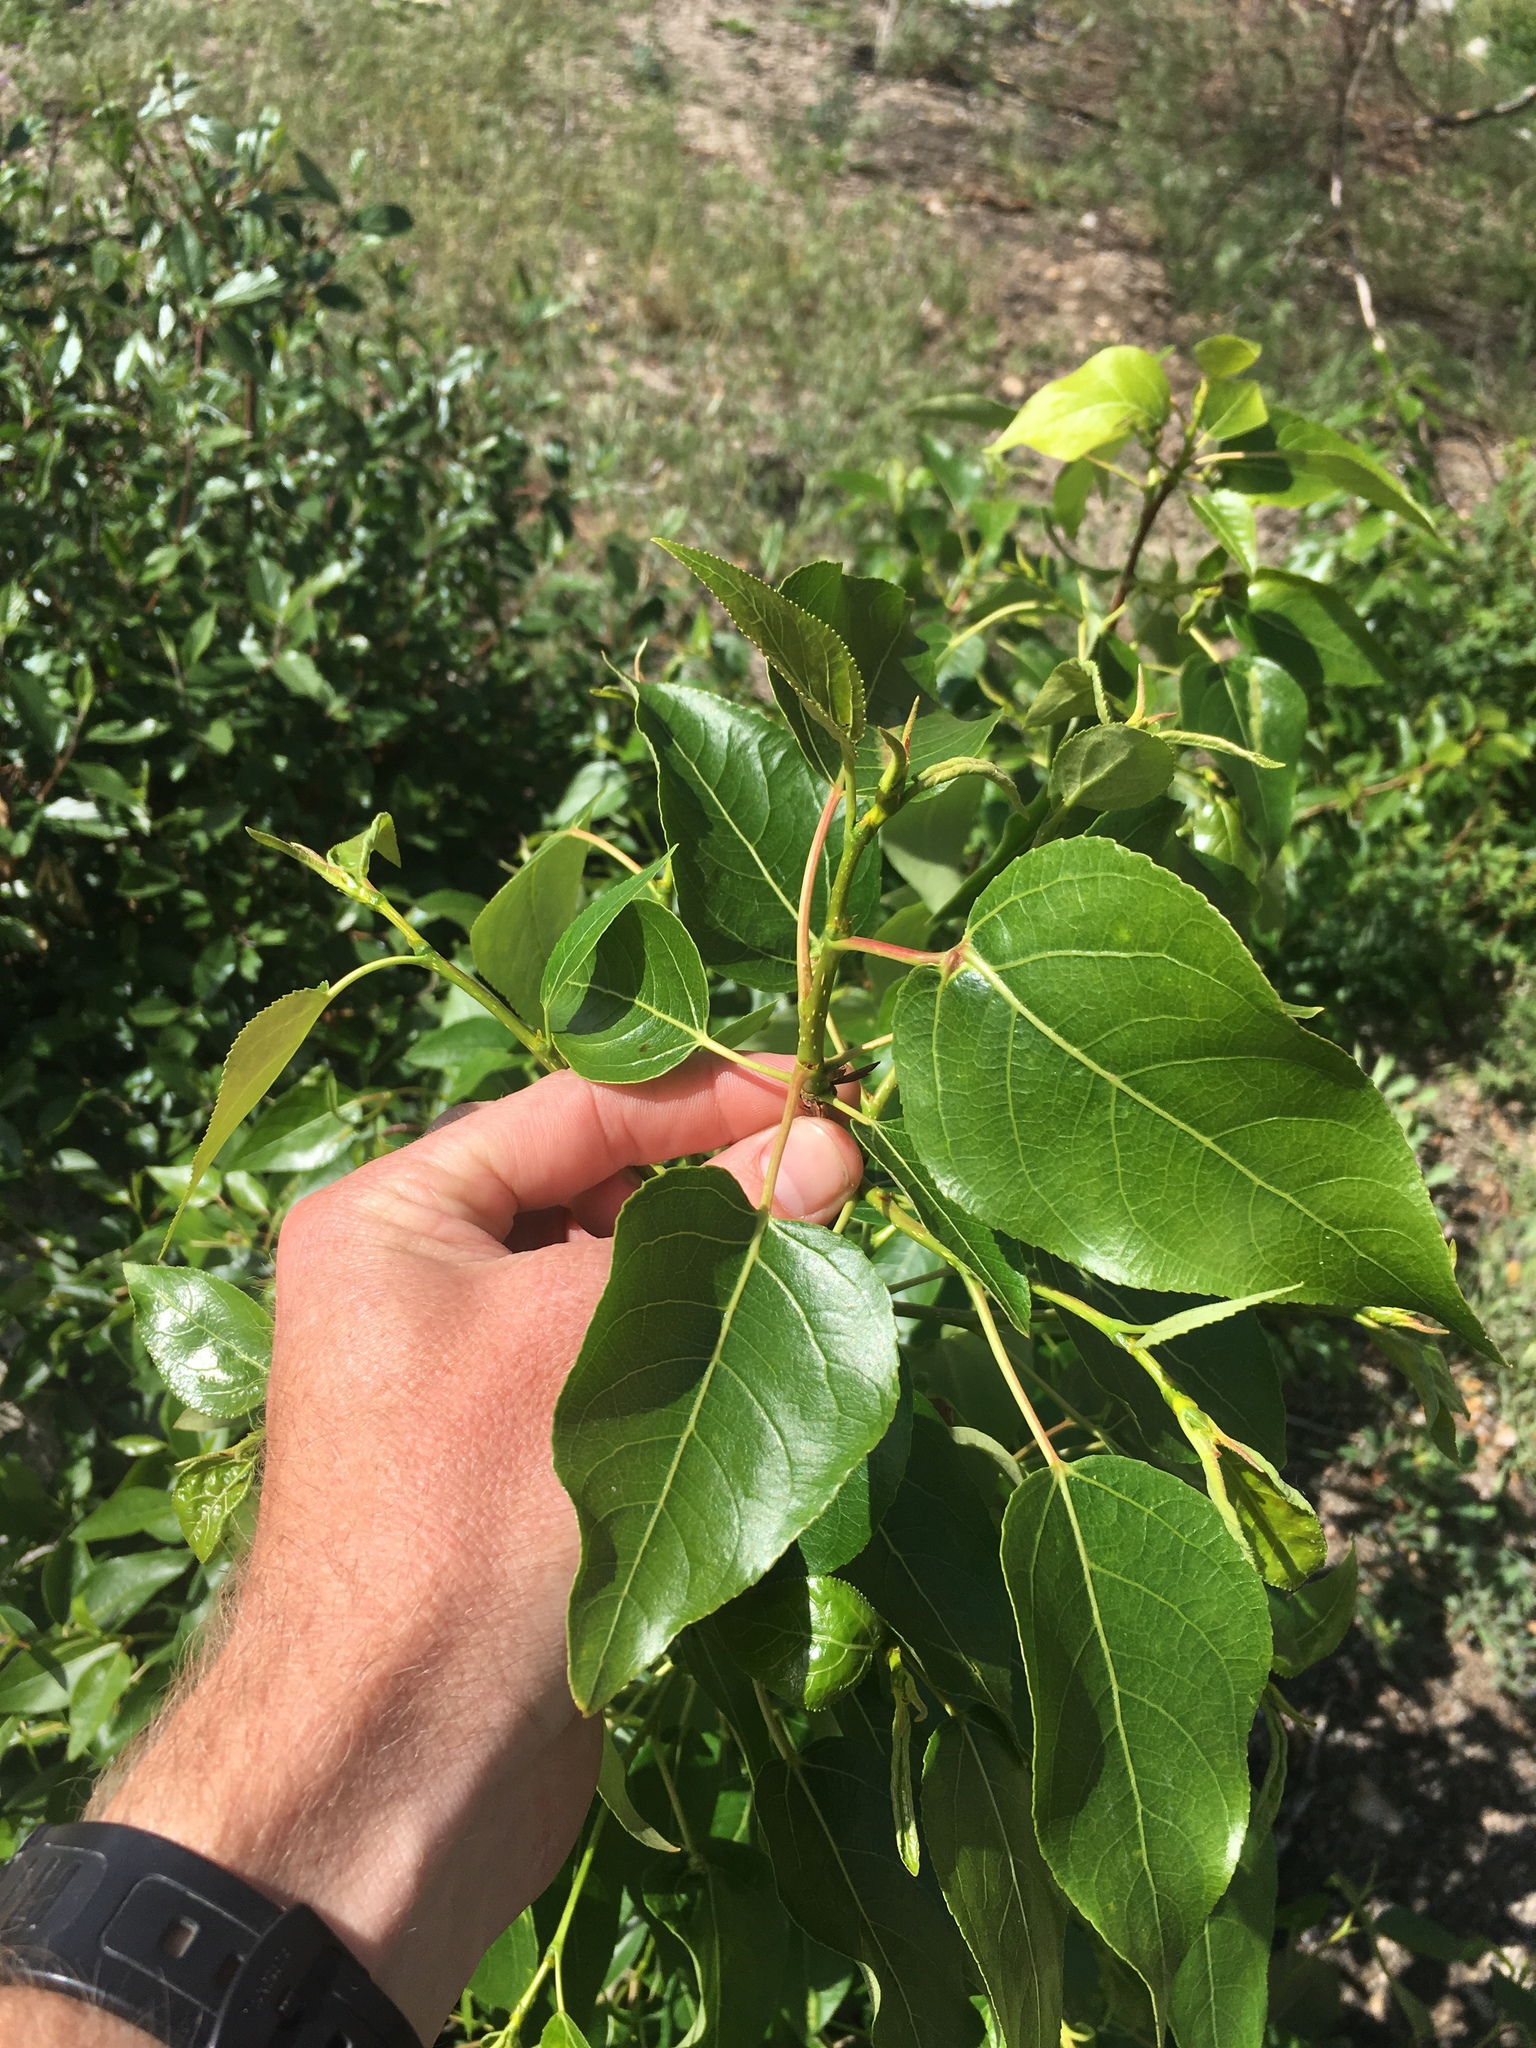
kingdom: Plantae
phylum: Tracheophyta
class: Magnoliopsida
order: Malpighiales
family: Salicaceae
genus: Populus
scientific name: Populus trichocarpa
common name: Black cottonwood
